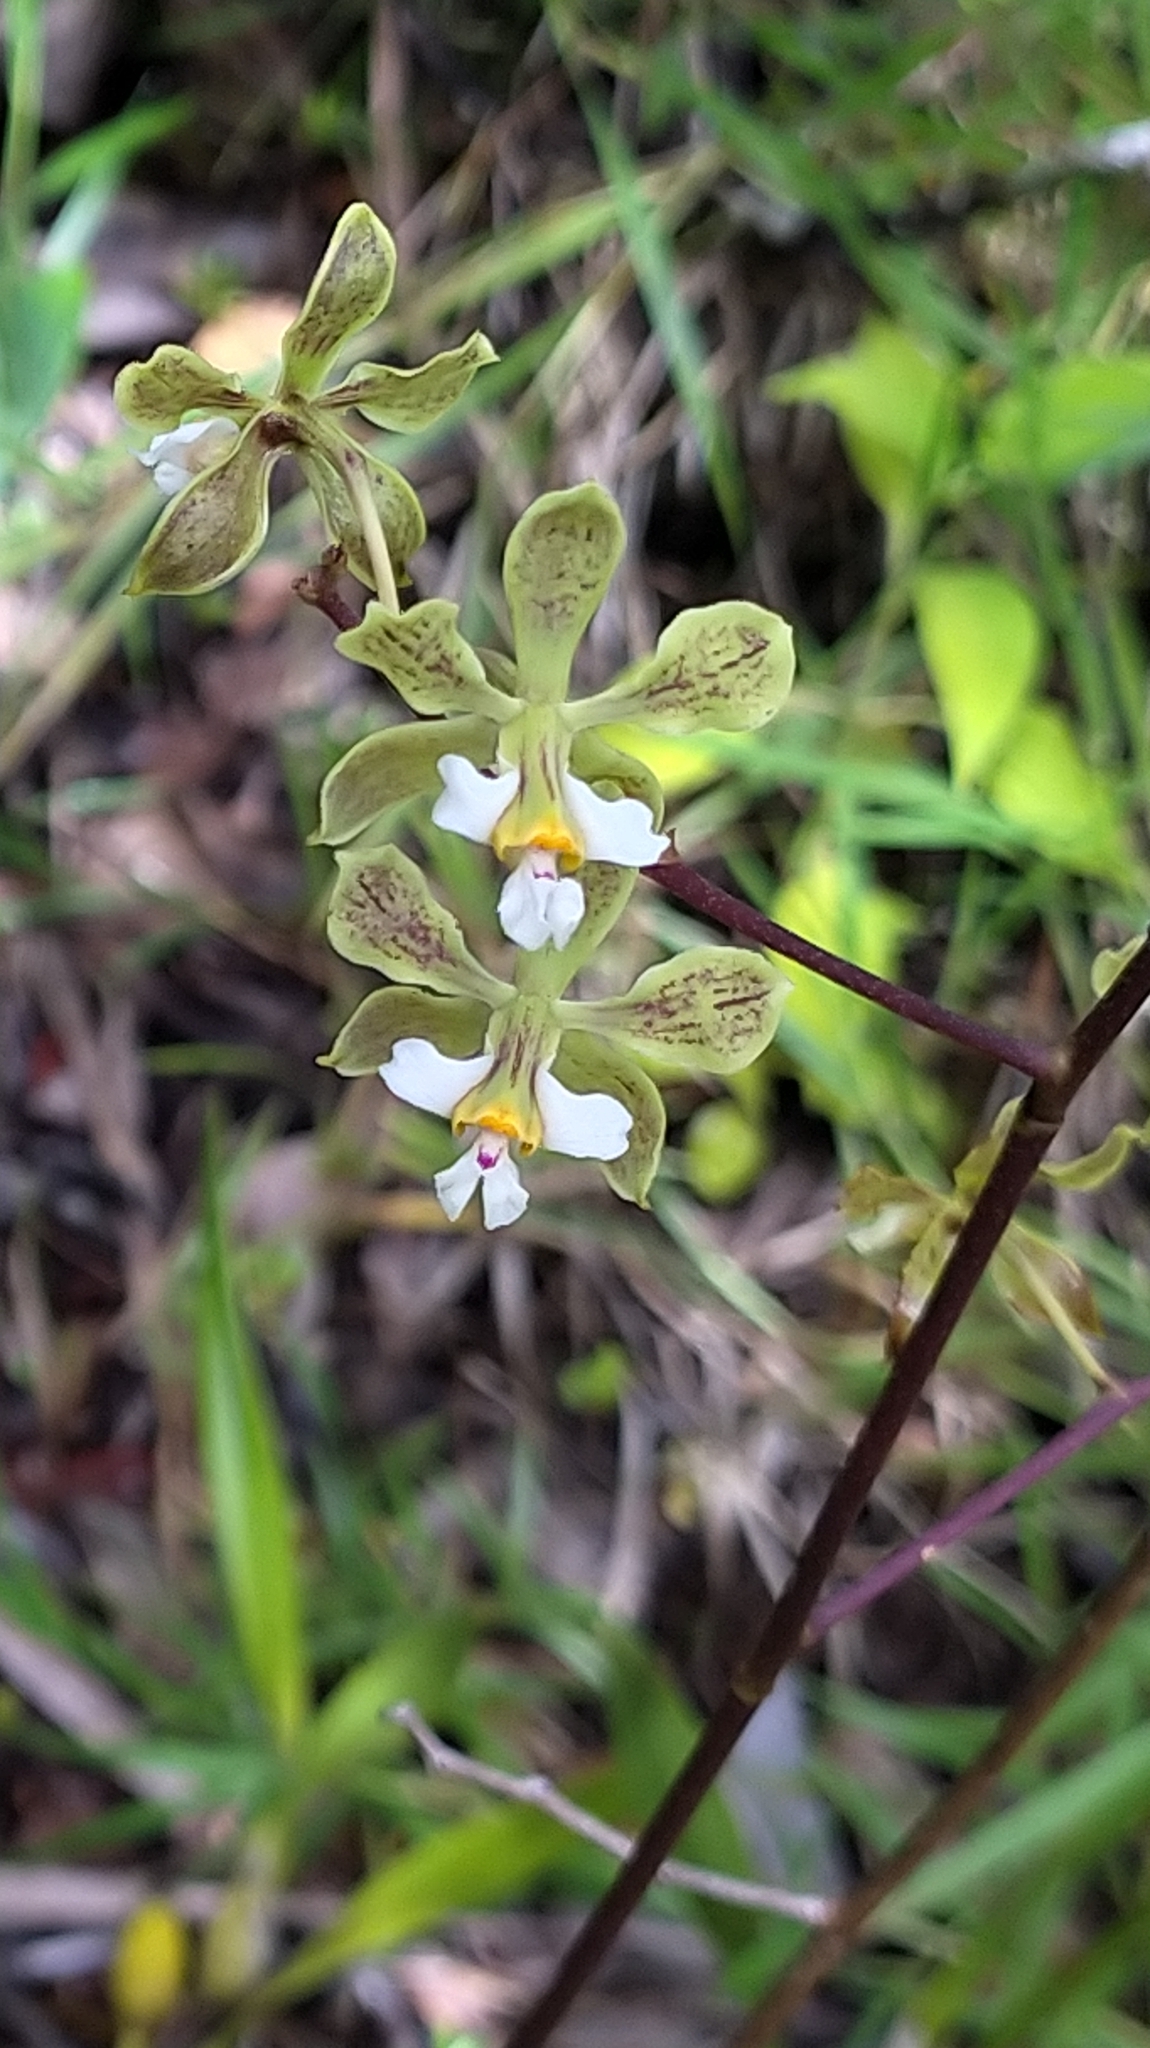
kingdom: Plantae
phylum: Tracheophyta
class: Liliopsida
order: Asparagales
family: Orchidaceae
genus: Encyclia
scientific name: Encyclia granitica
